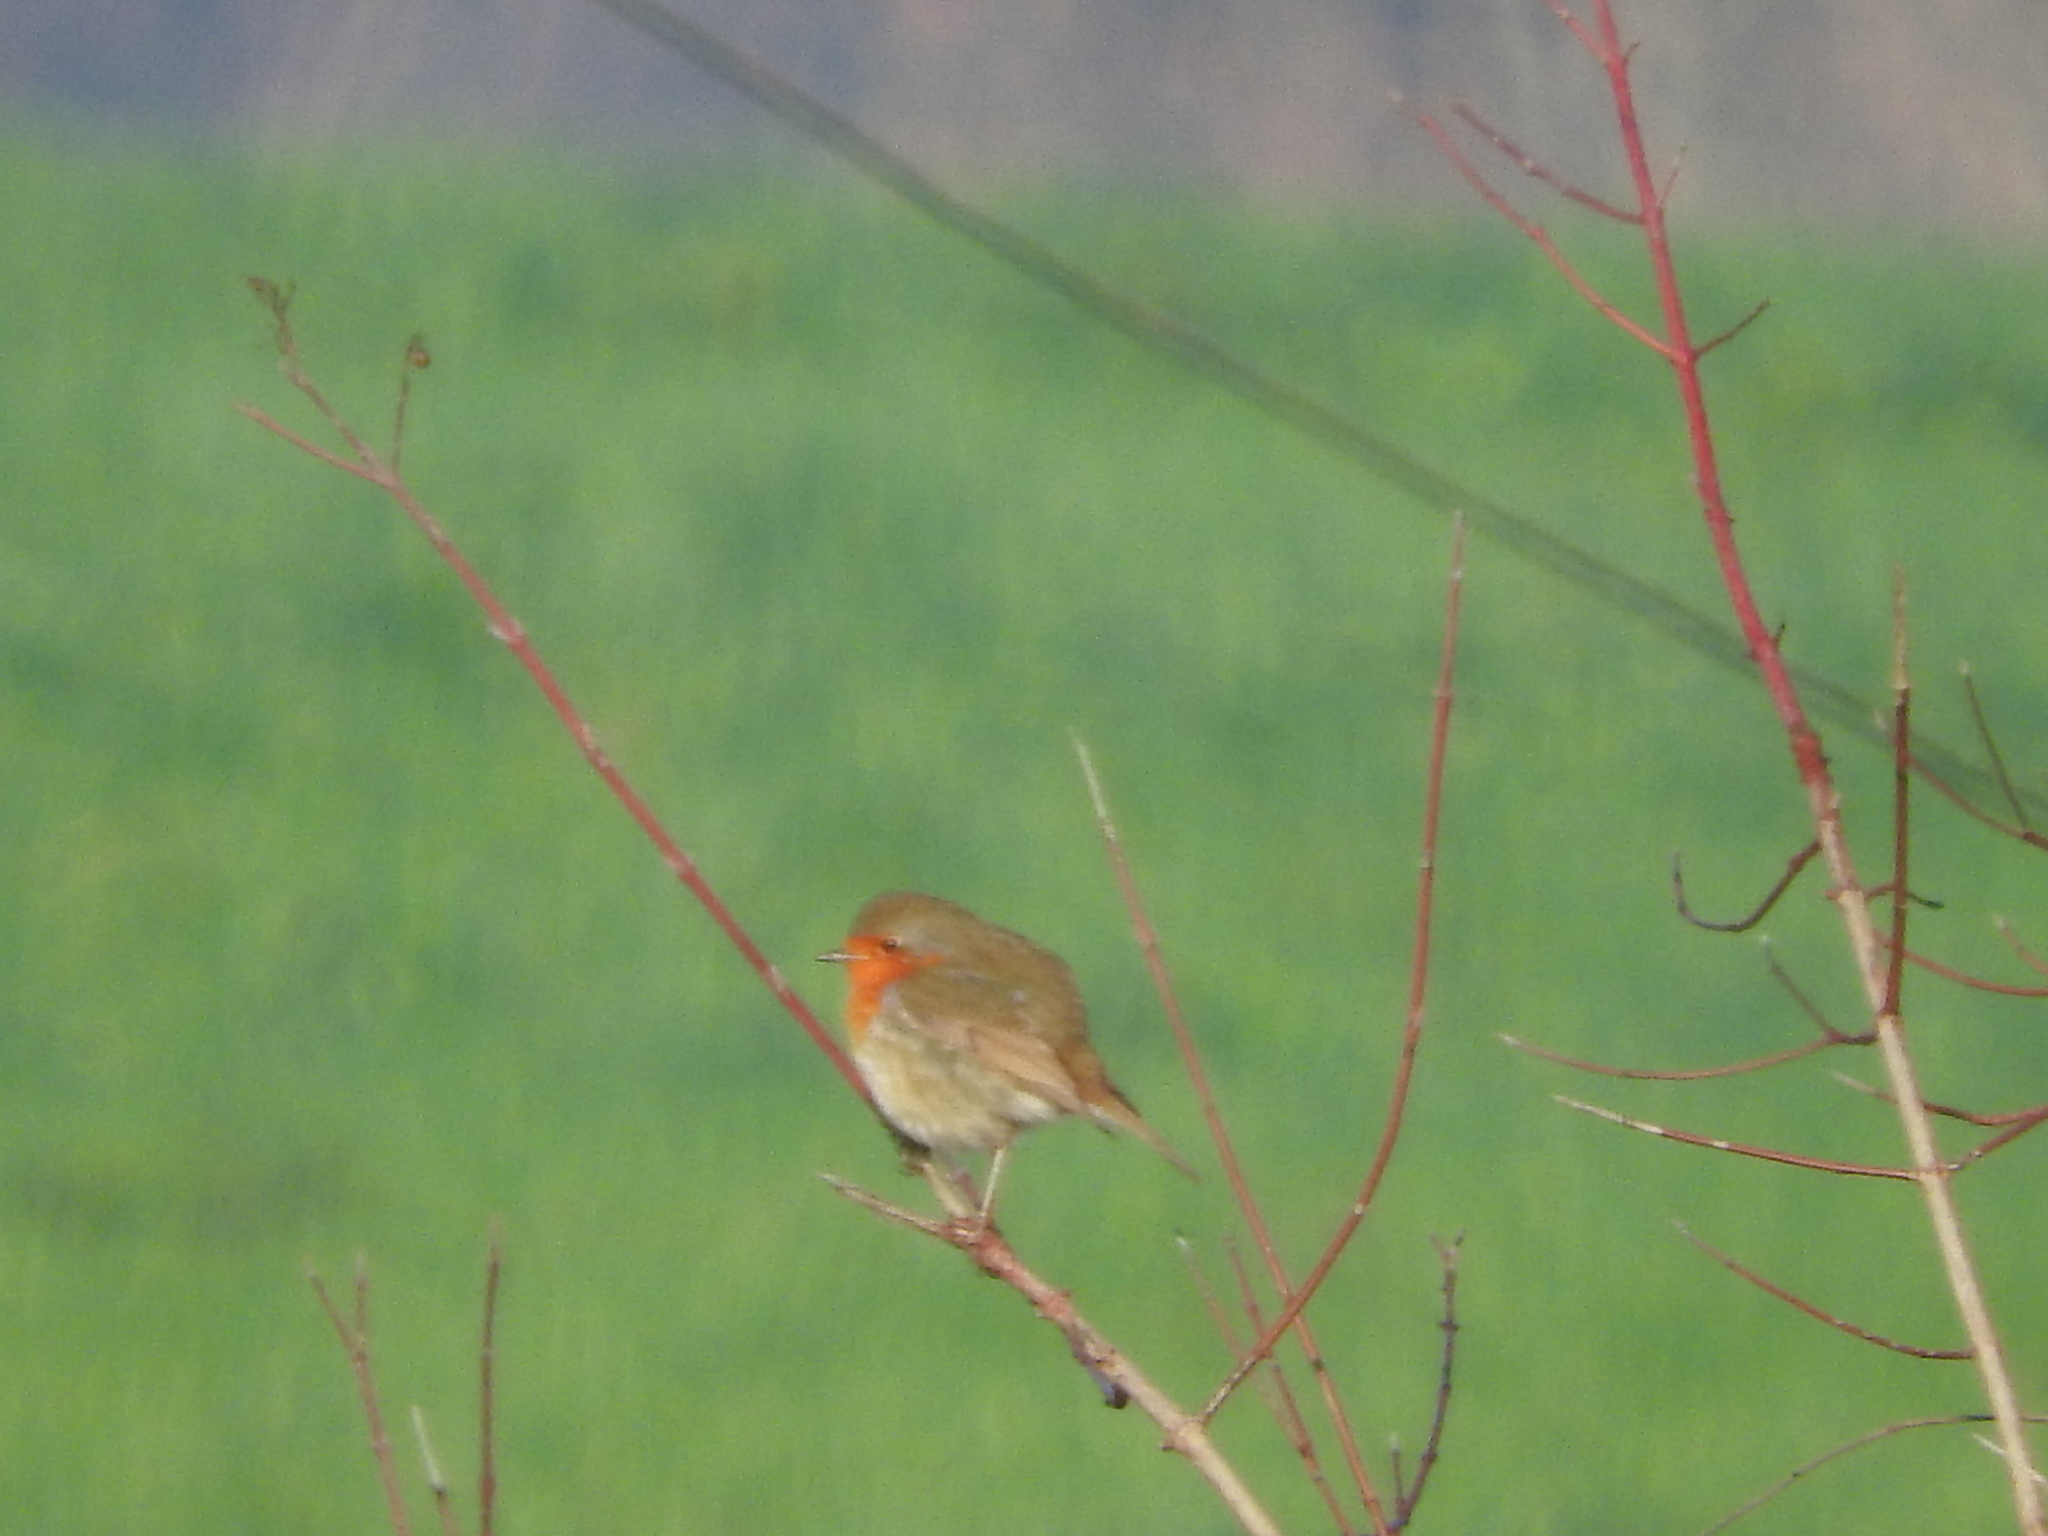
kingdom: Animalia
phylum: Chordata
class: Aves
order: Passeriformes
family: Muscicapidae
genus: Erithacus
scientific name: Erithacus rubecula
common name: European robin
